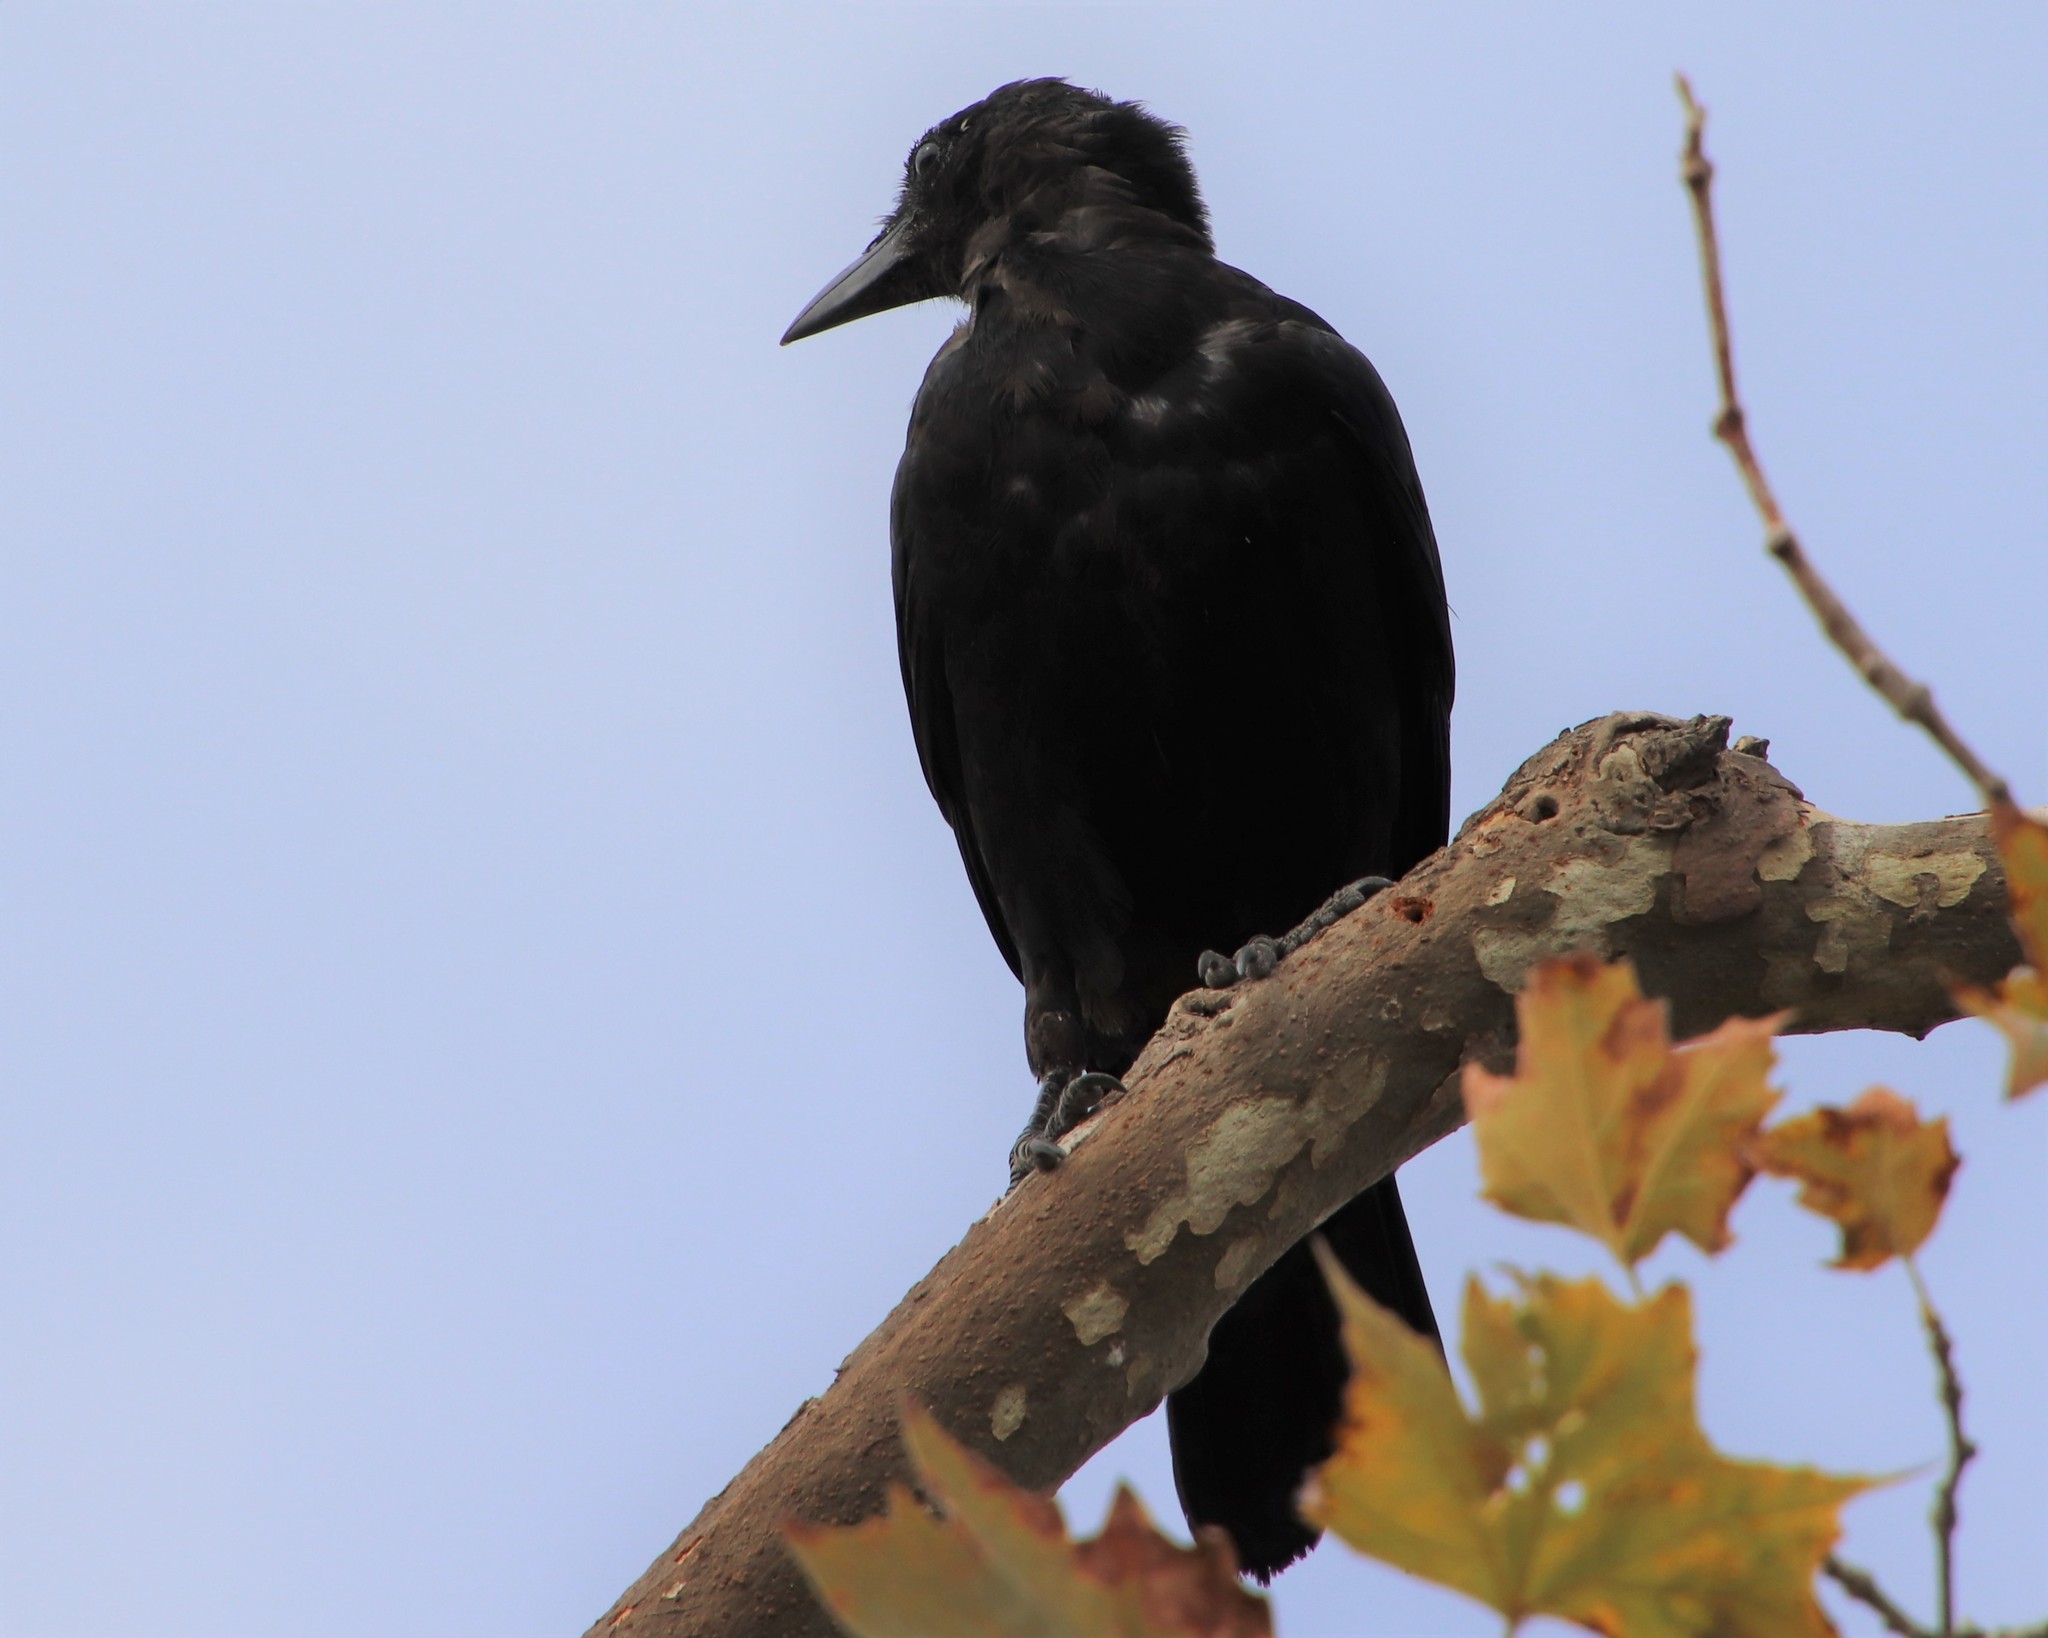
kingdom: Animalia
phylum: Chordata
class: Aves
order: Passeriformes
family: Corvidae
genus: Corvus
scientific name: Corvus brachyrhynchos
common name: American crow
